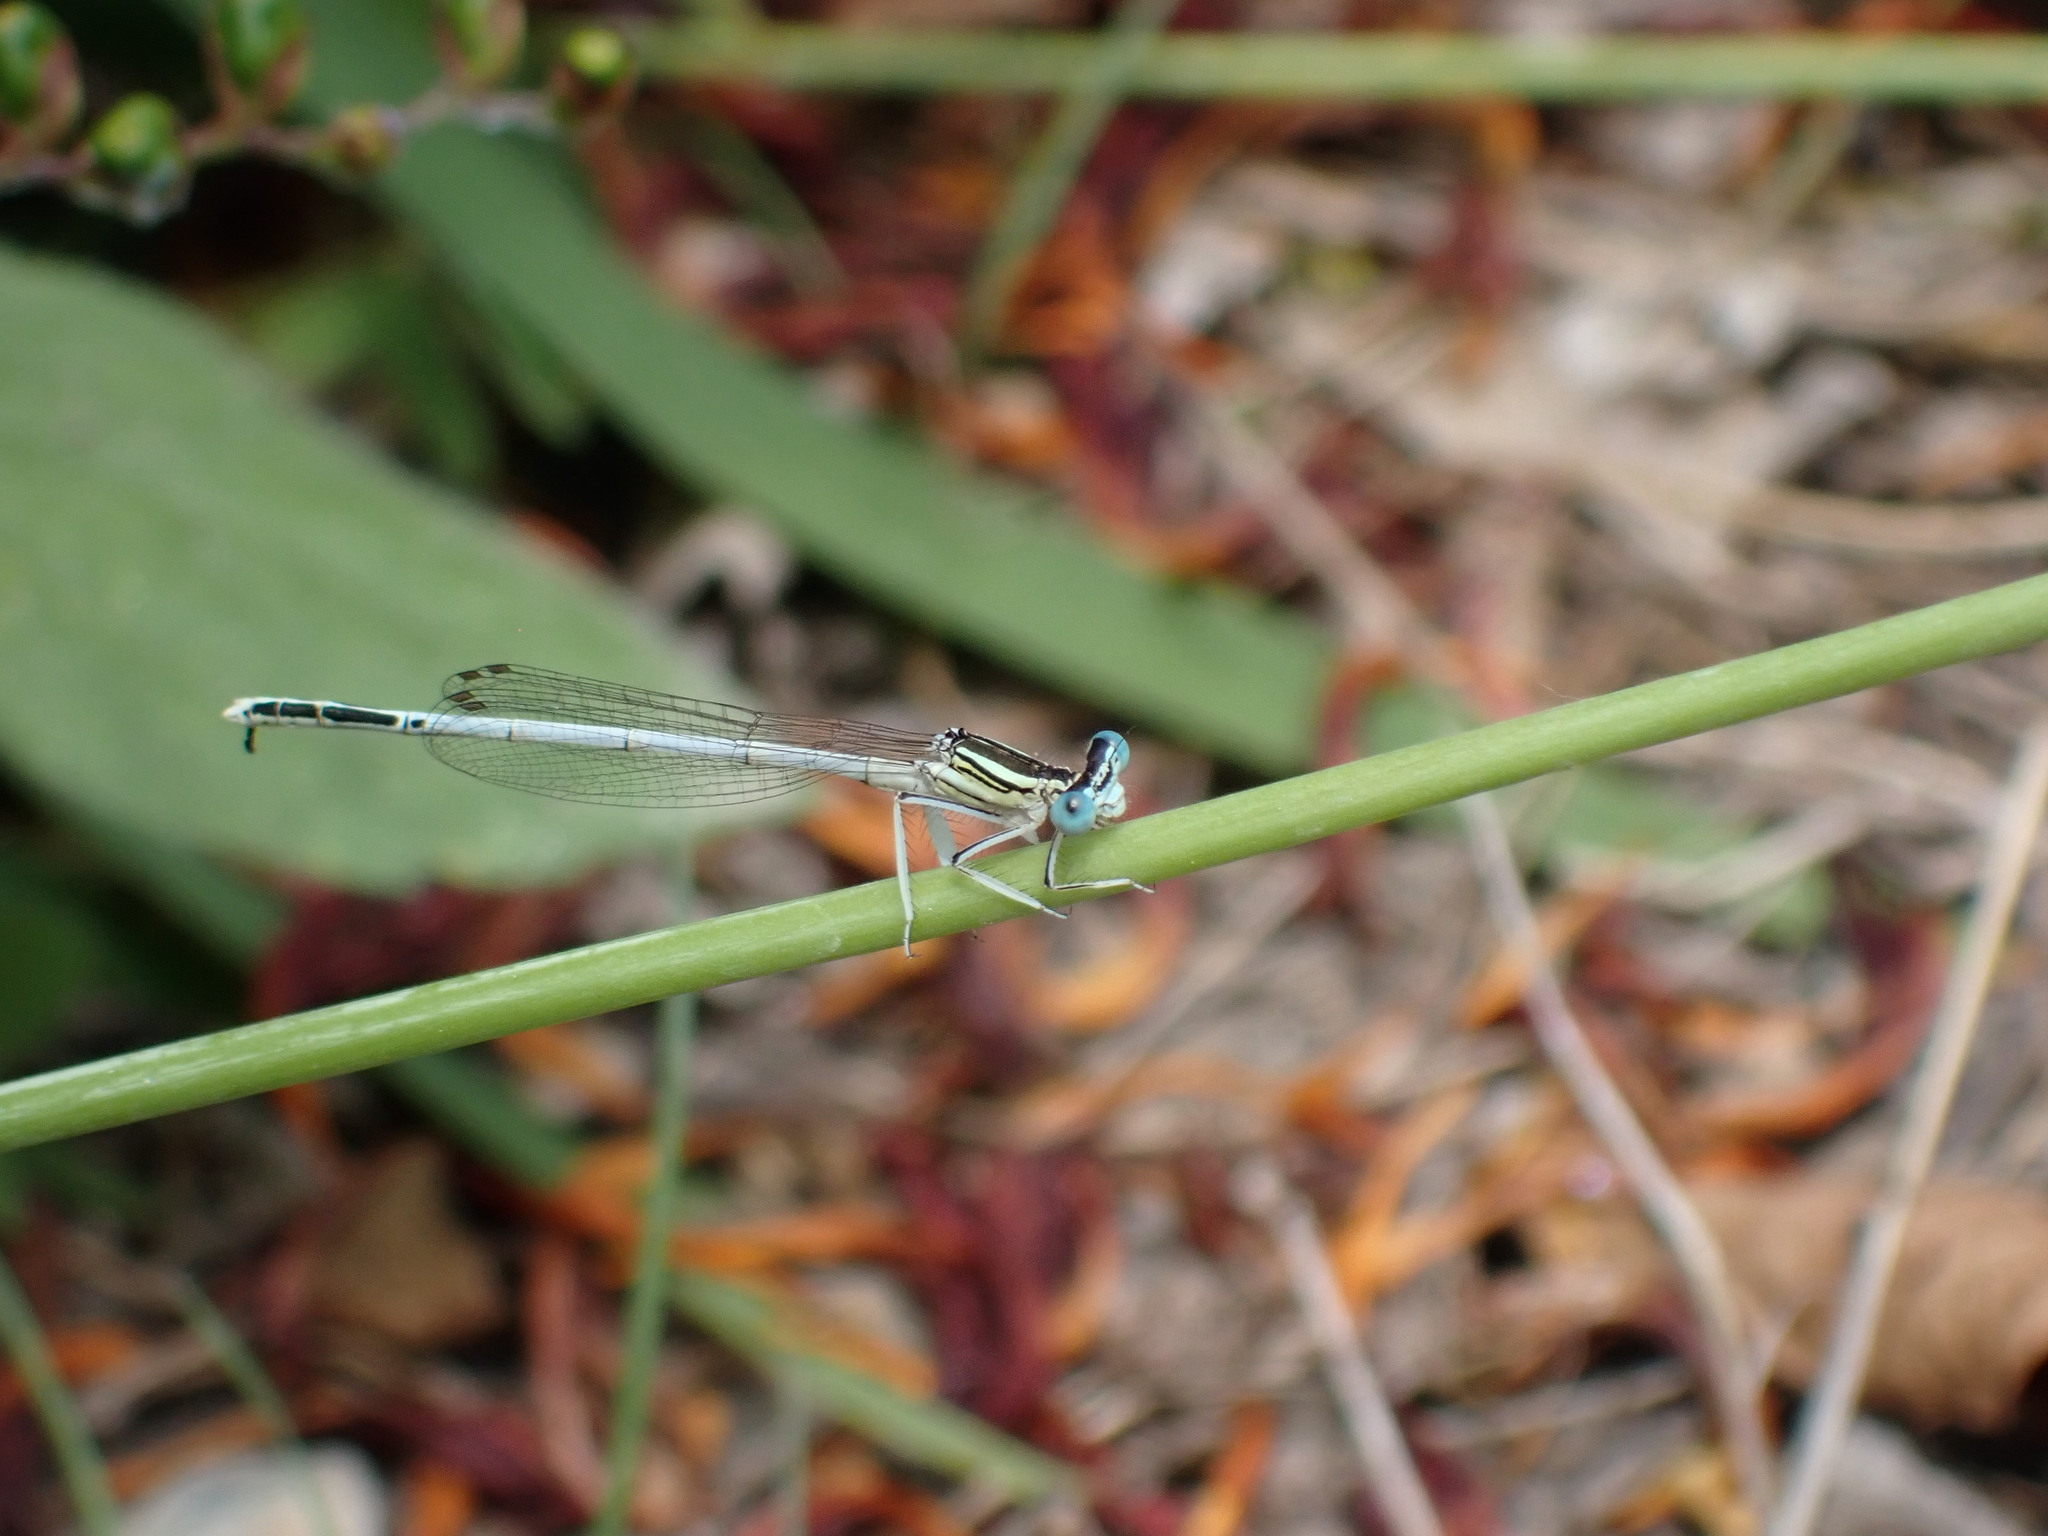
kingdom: Animalia
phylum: Arthropoda
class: Insecta
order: Odonata
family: Platycnemididae
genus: Platycnemis
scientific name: Platycnemis latipes
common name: White featherleg
